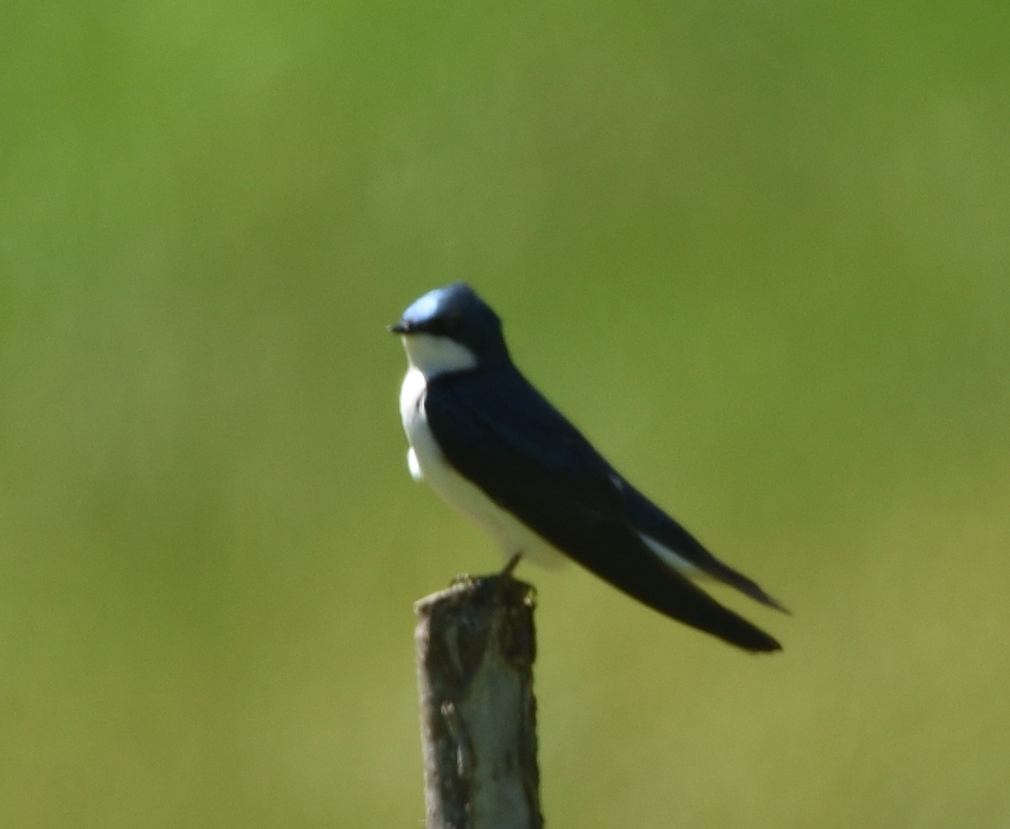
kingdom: Animalia
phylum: Chordata
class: Aves
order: Passeriformes
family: Hirundinidae
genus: Tachycineta
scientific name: Tachycineta bicolor
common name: Tree swallow
